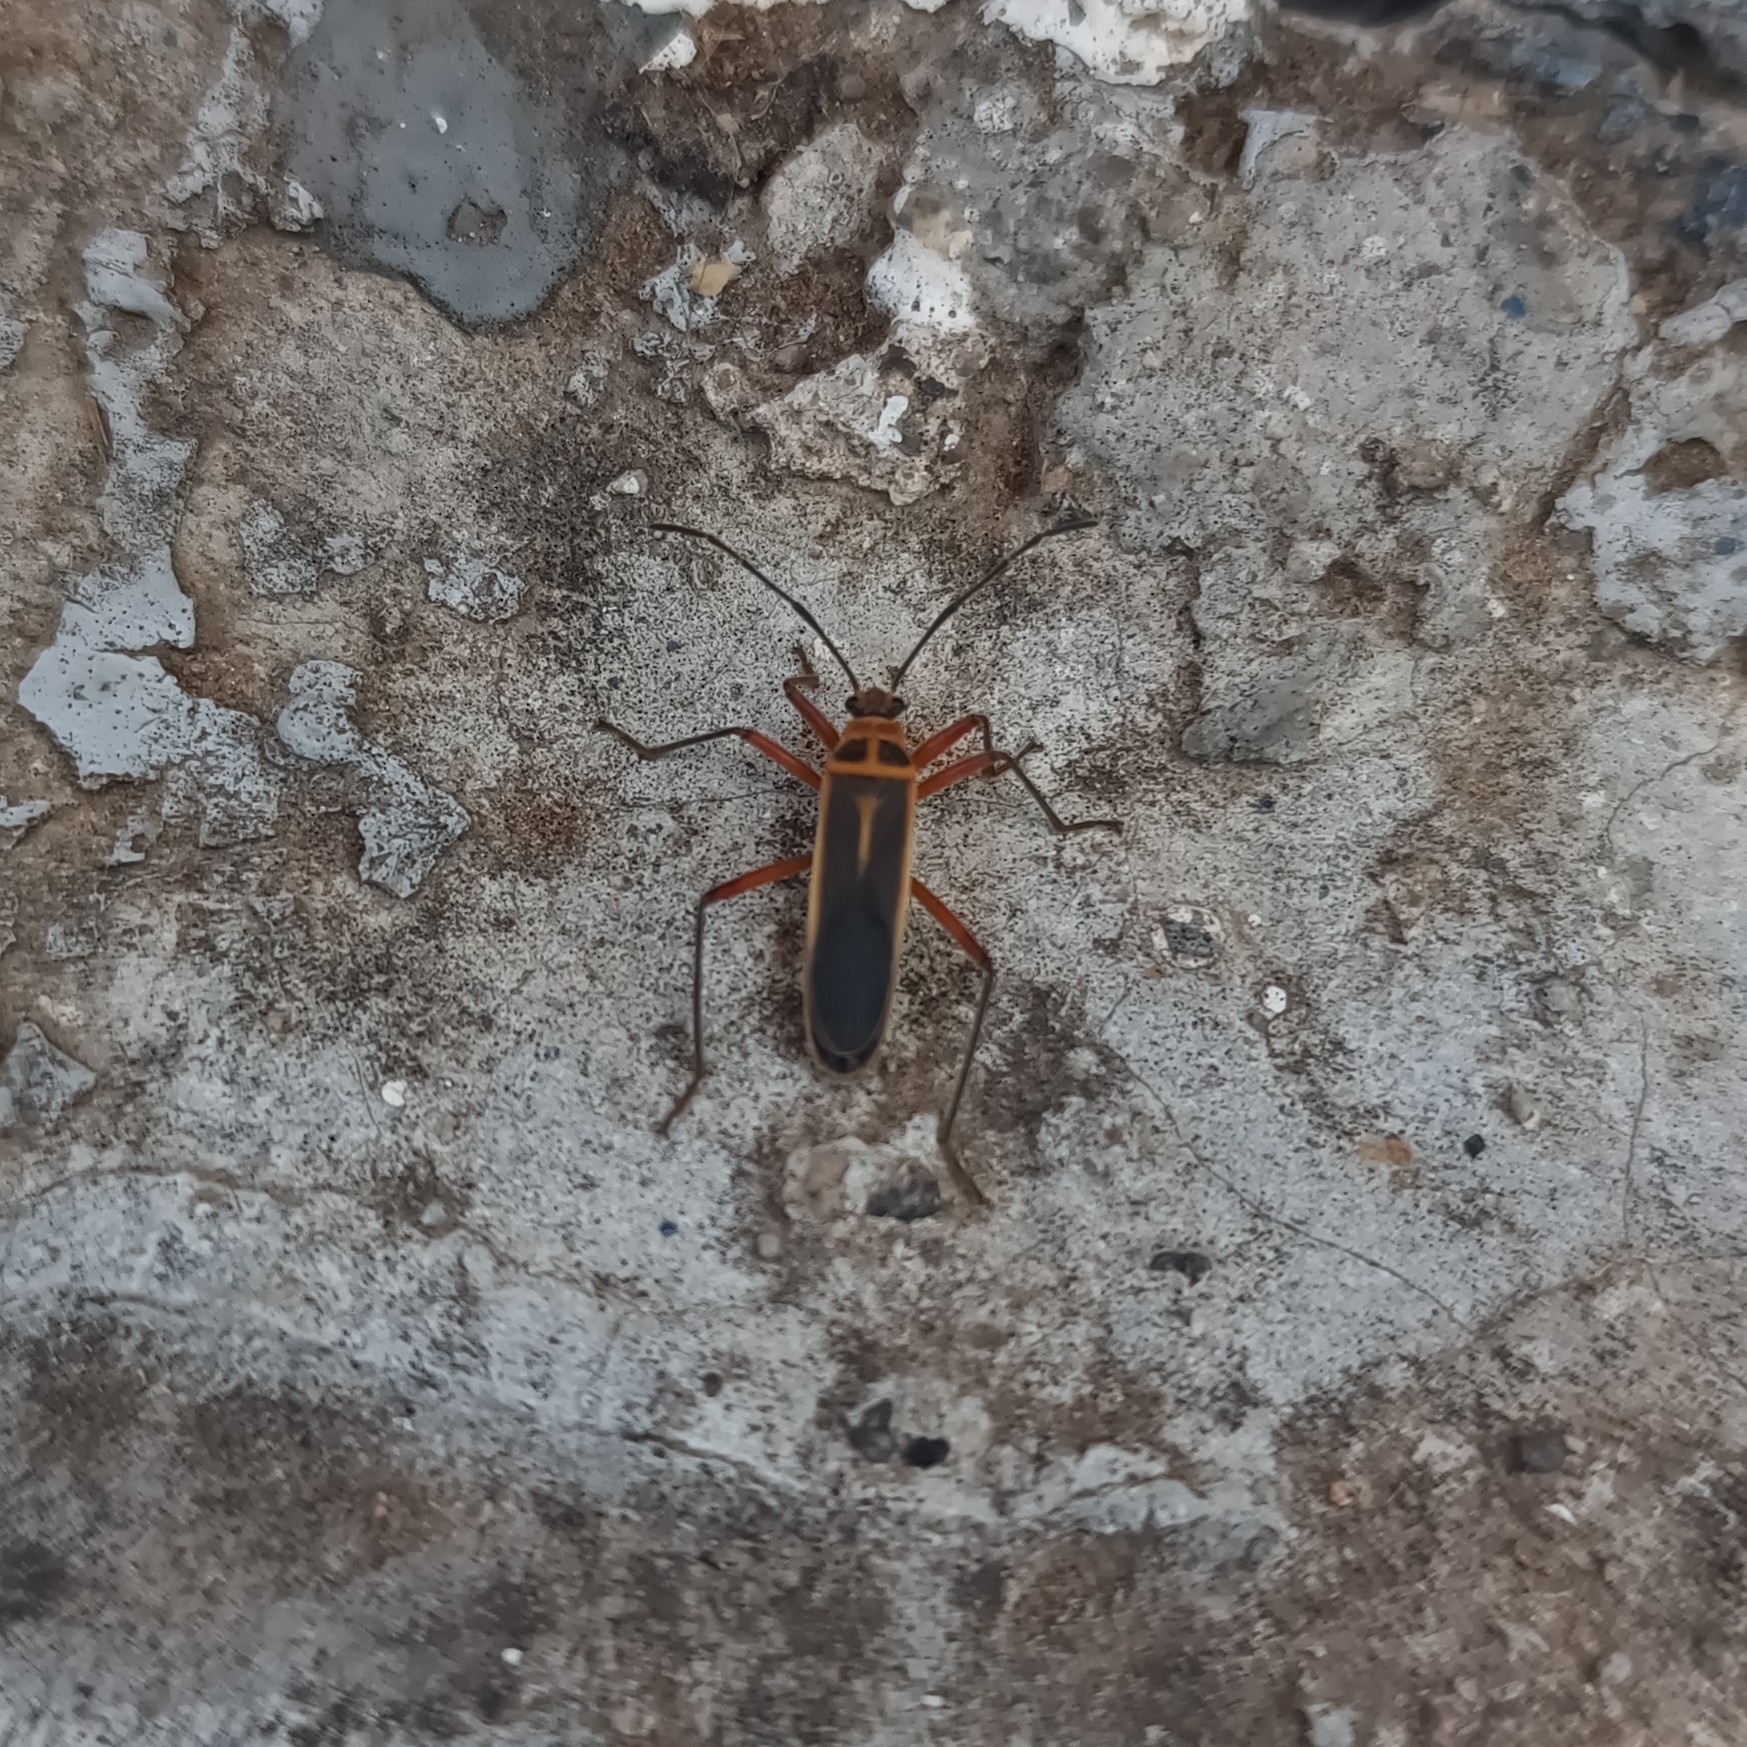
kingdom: Animalia
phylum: Arthropoda
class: Insecta
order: Hemiptera
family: Largidae
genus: Stenomacra
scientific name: Stenomacra marginella
